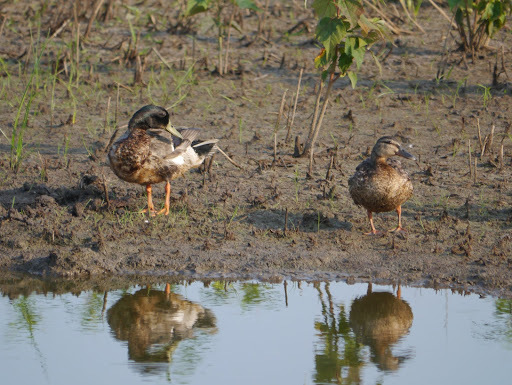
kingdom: Animalia
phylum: Chordata
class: Aves
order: Anseriformes
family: Anatidae
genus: Anas
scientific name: Anas platyrhynchos
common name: Mallard
